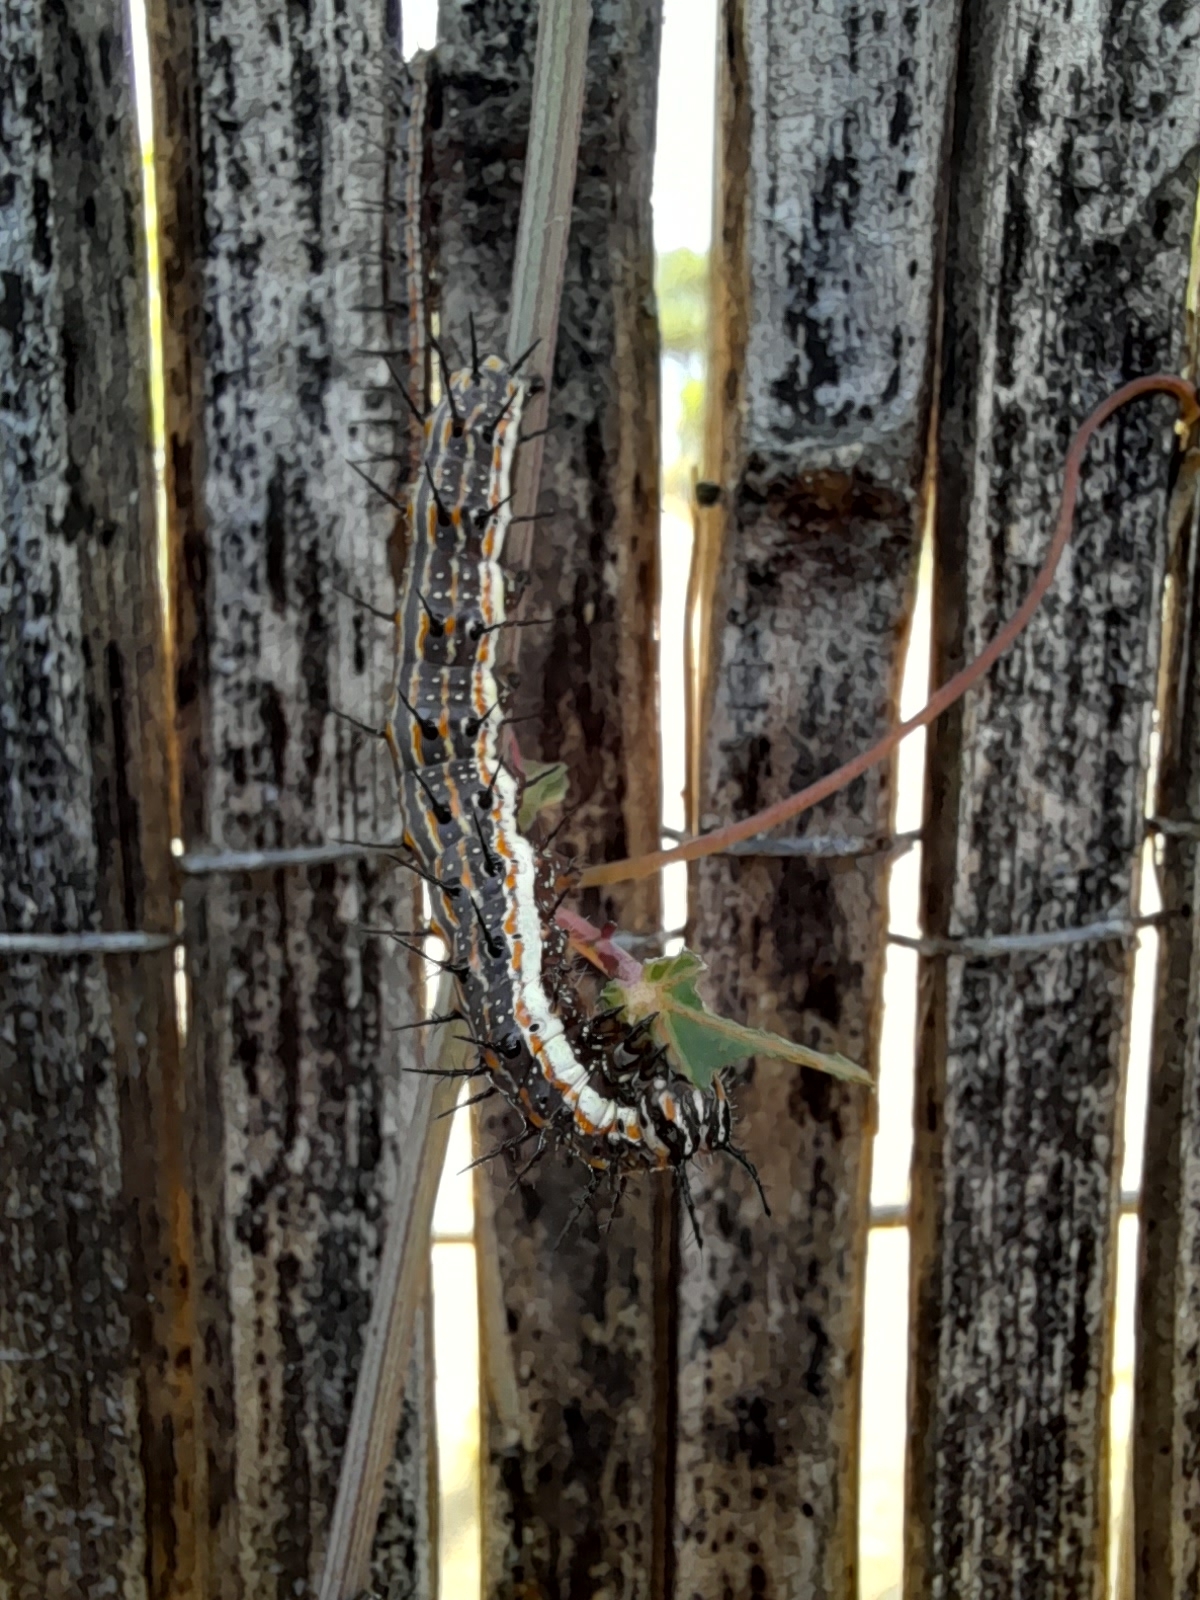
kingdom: Animalia
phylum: Arthropoda
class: Insecta
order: Lepidoptera
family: Nymphalidae
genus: Dione
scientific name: Dione vanillae
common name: Gulf fritillary
